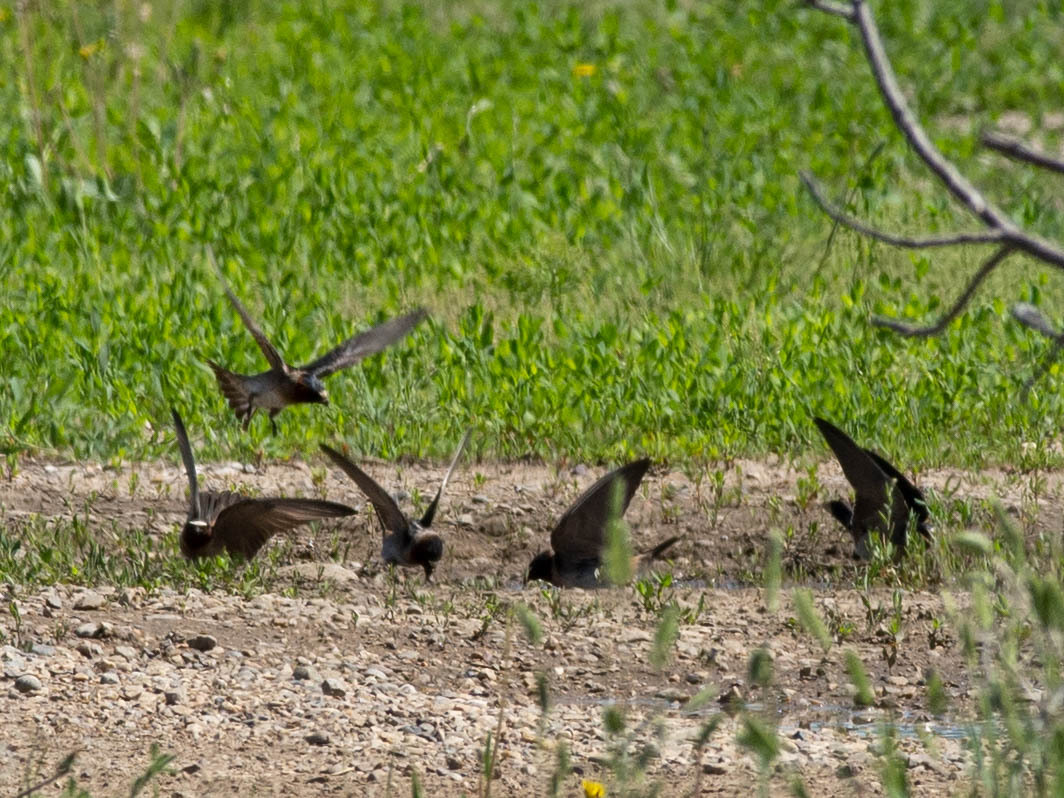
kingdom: Animalia
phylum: Chordata
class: Aves
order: Passeriformes
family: Hirundinidae
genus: Petrochelidon
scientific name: Petrochelidon pyrrhonota
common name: American cliff swallow
